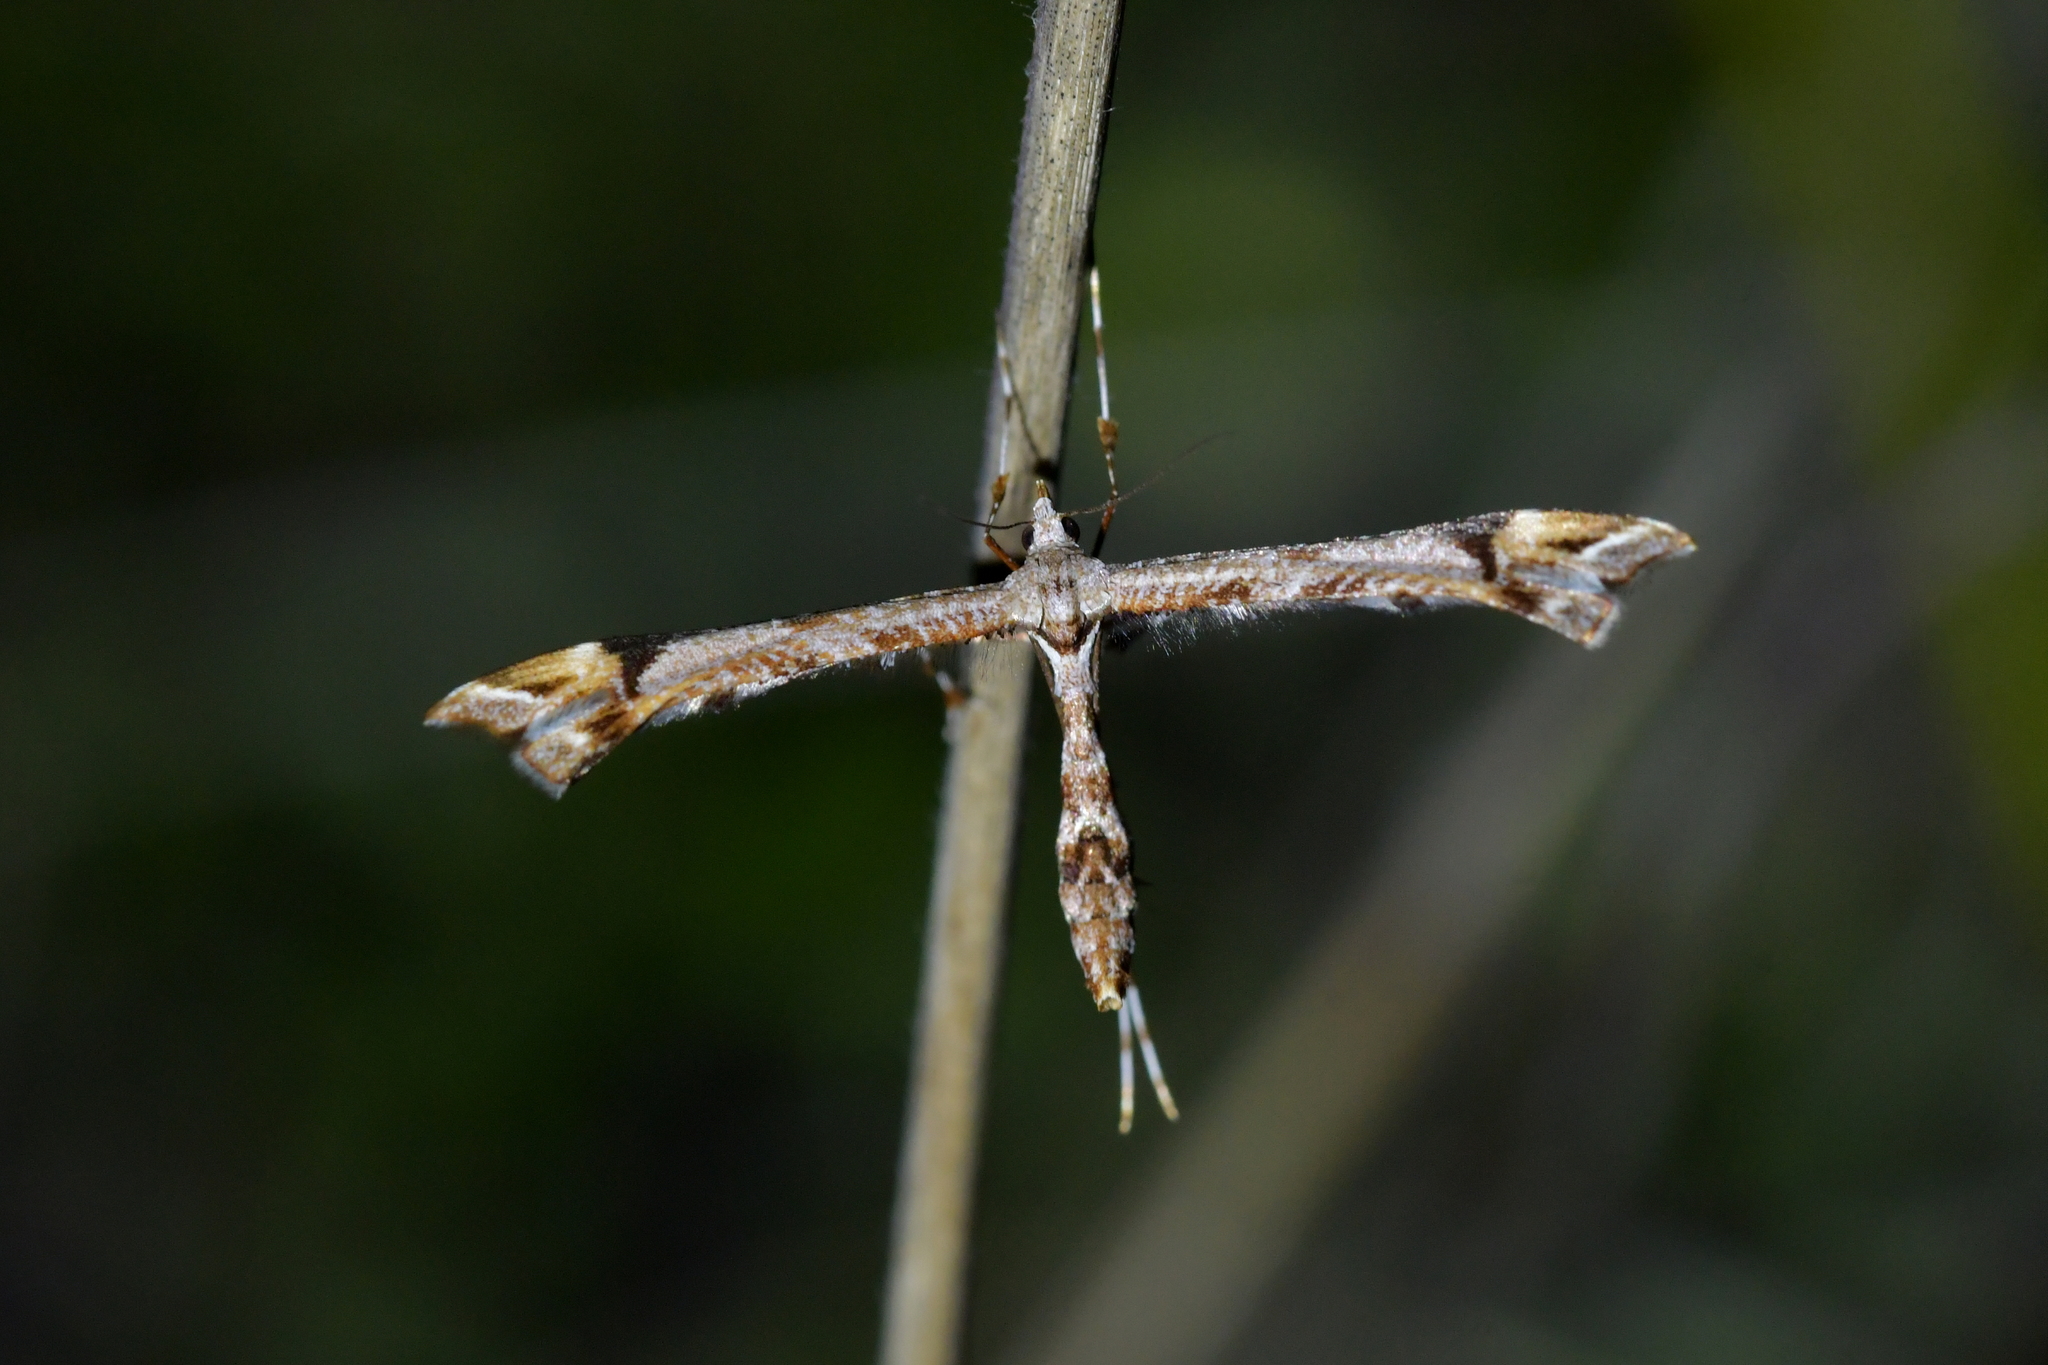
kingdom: Animalia
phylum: Arthropoda
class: Insecta
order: Lepidoptera
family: Pterophoridae
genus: Amblyptilia
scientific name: Amblyptilia falcatalis
